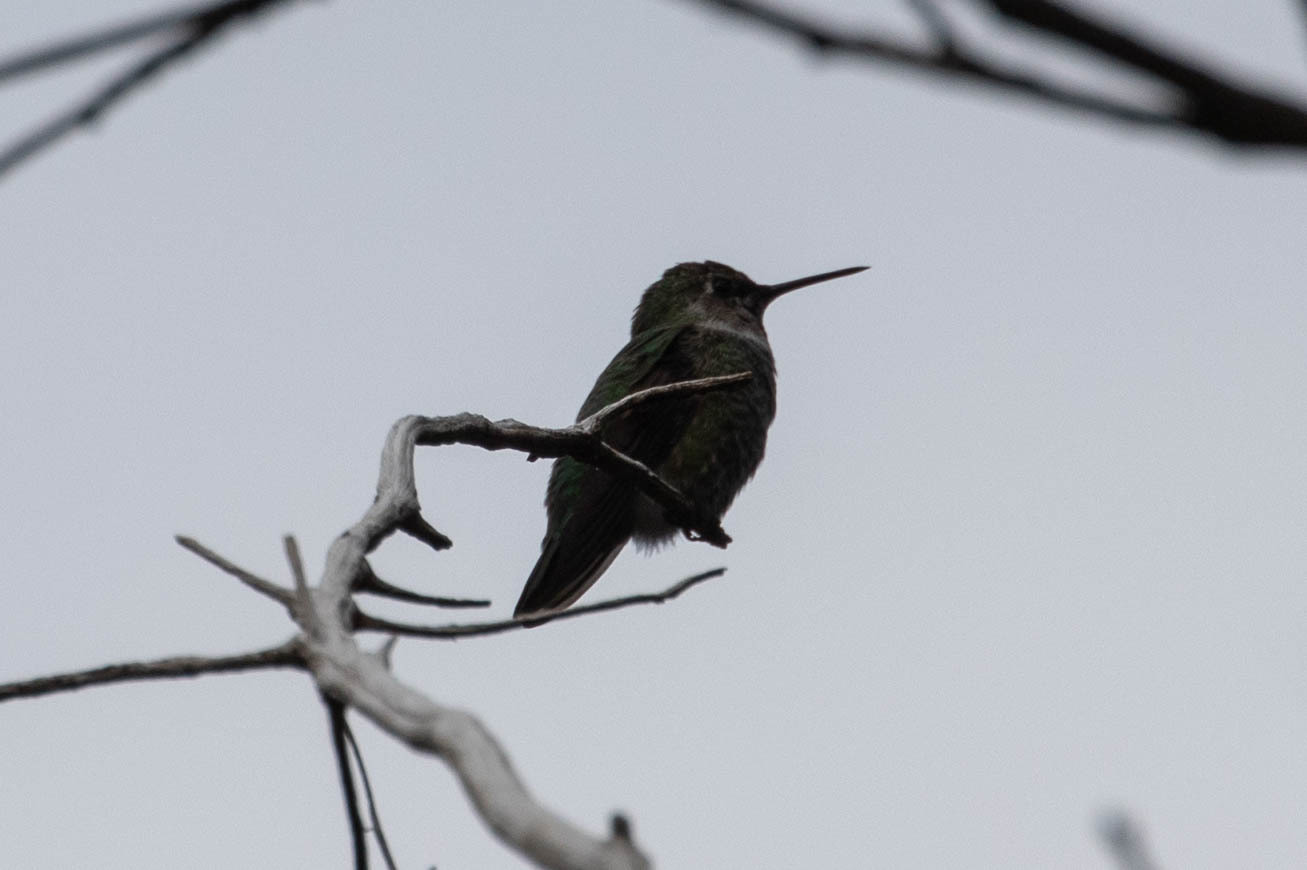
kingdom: Animalia
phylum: Chordata
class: Aves
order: Apodiformes
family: Trochilidae
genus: Calypte
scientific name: Calypte anna
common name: Anna's hummingbird
